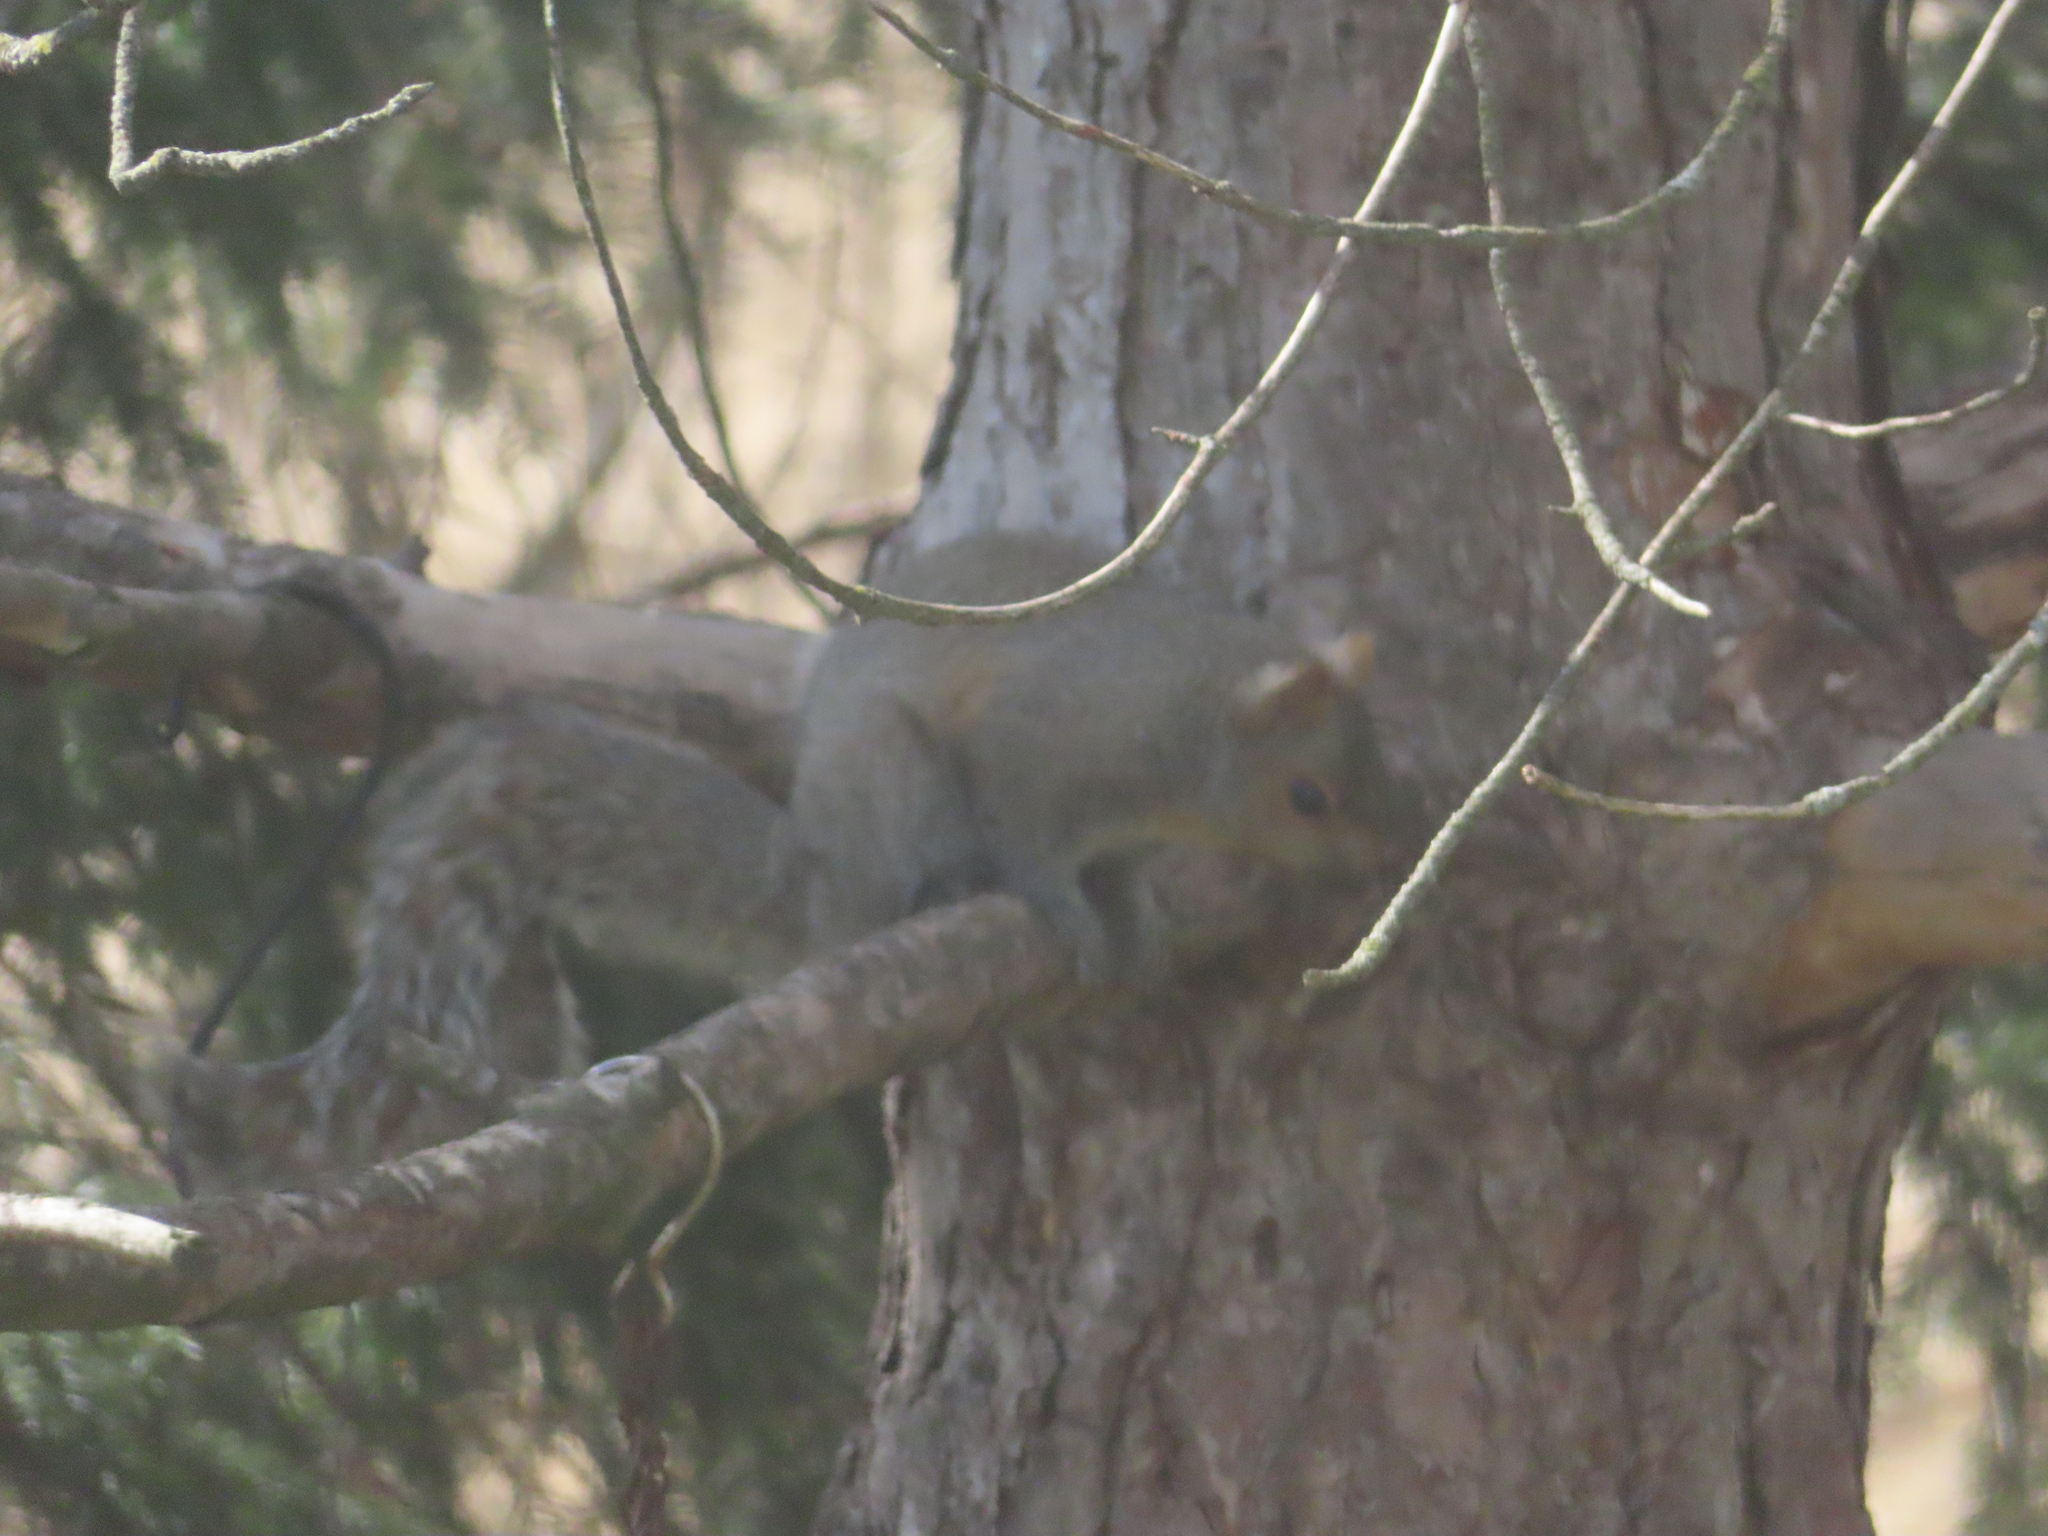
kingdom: Animalia
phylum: Chordata
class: Mammalia
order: Rodentia
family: Sciuridae
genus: Sciurus
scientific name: Sciurus carolinensis
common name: Eastern gray squirrel
